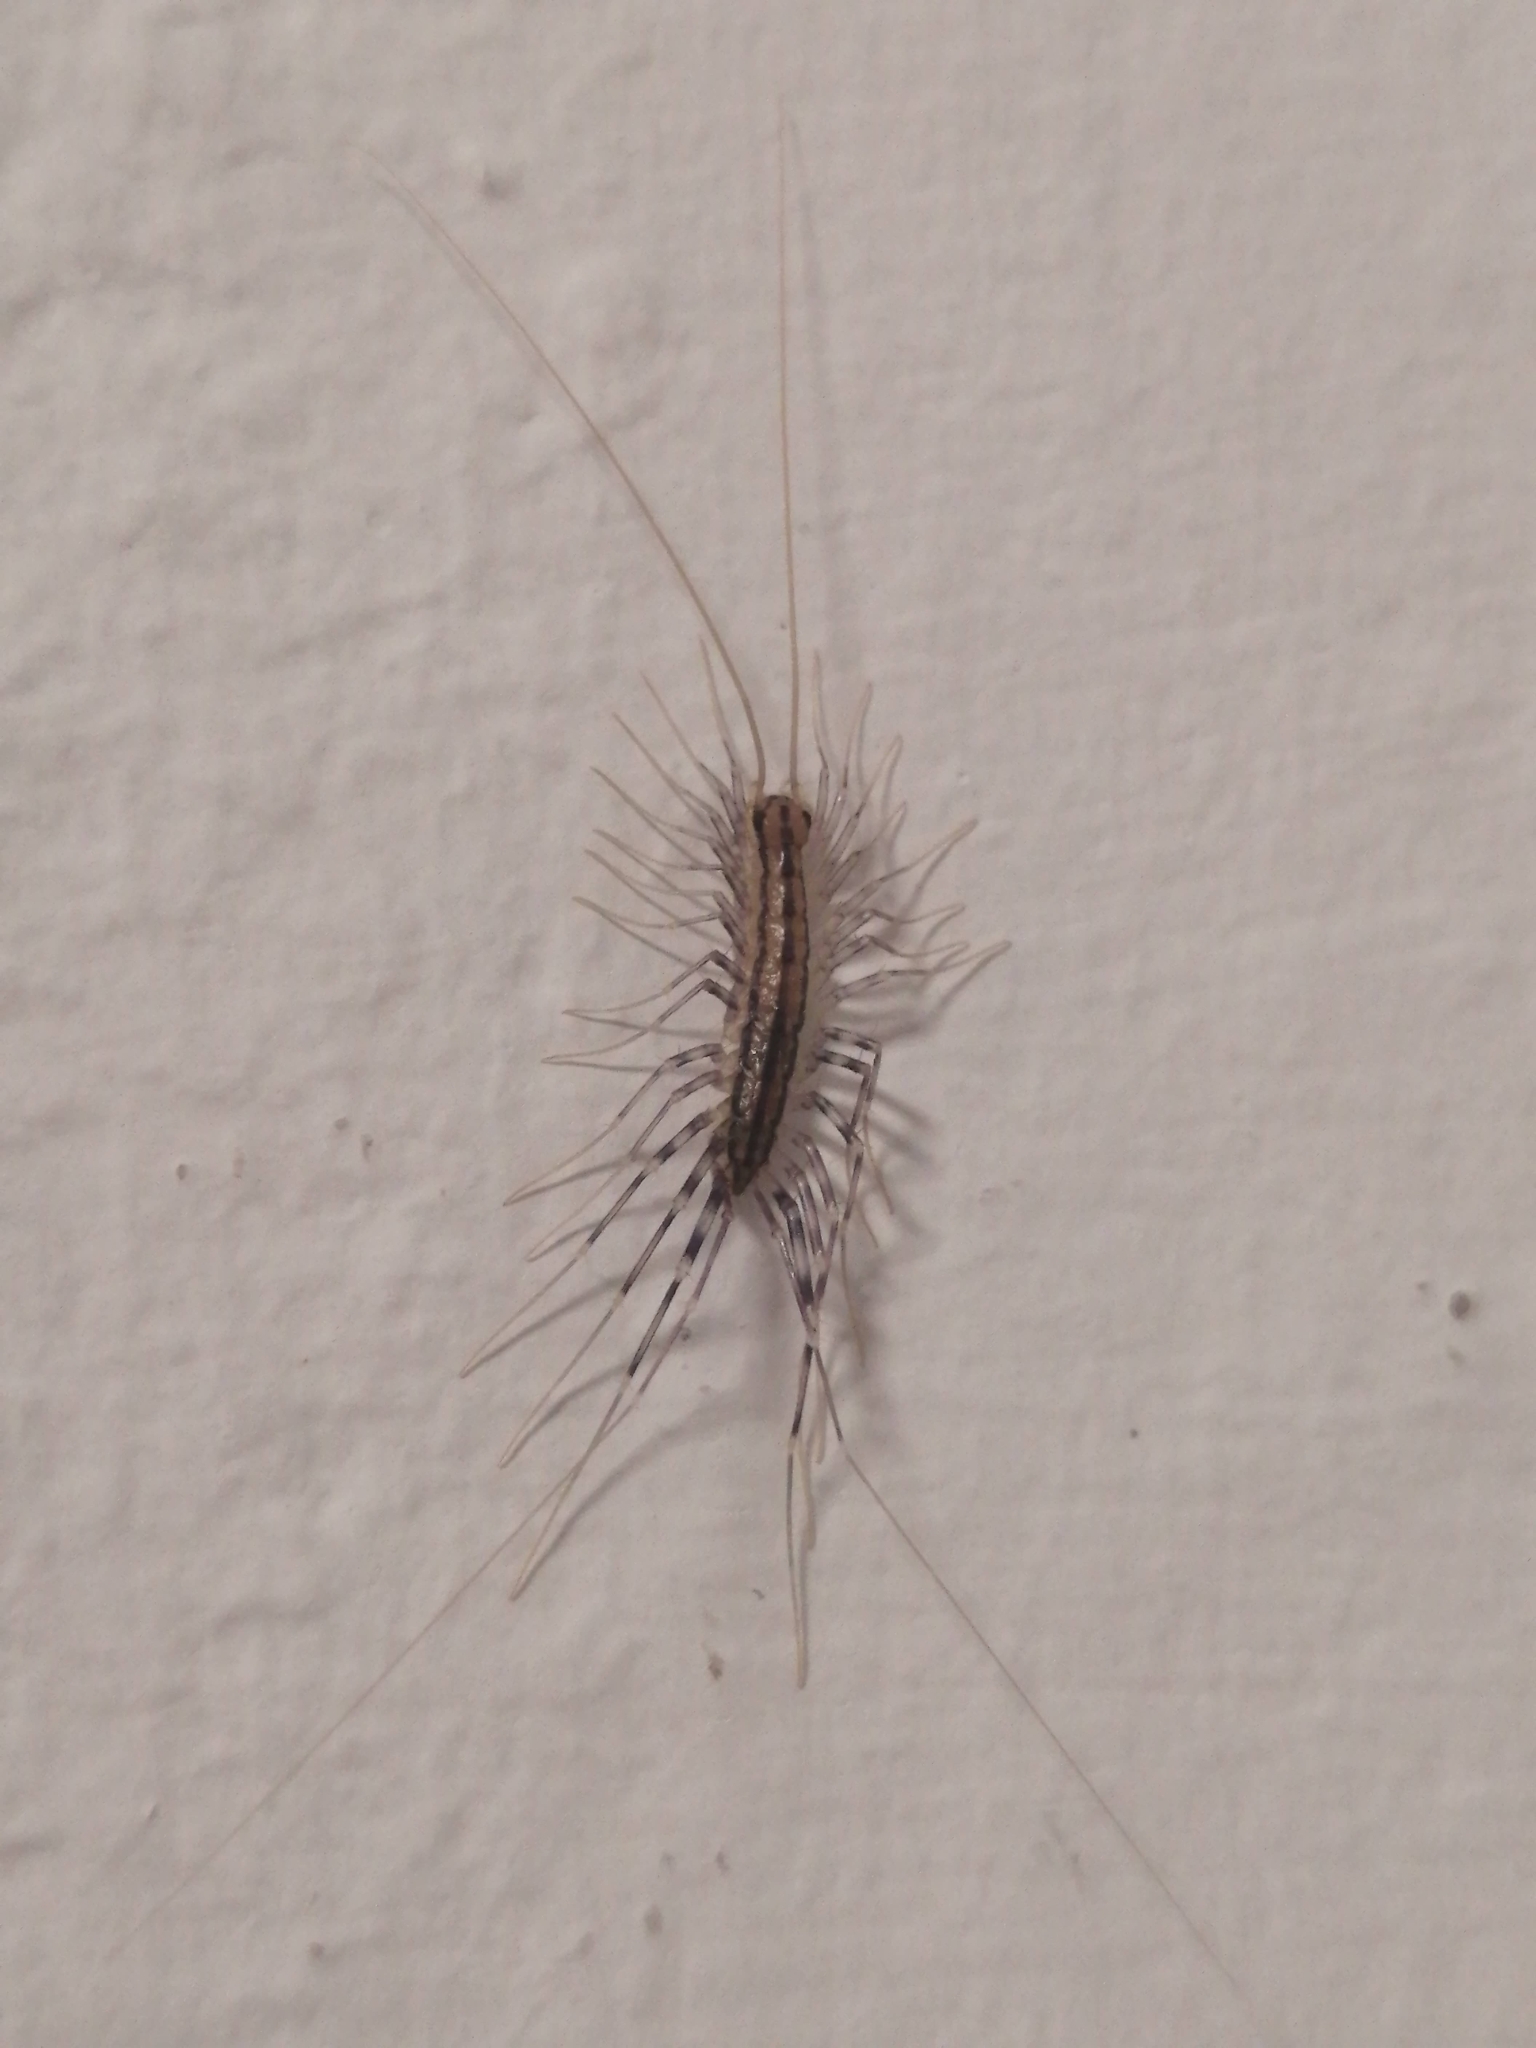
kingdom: Animalia
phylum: Arthropoda
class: Chilopoda
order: Scutigeromorpha
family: Scutigeridae
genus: Scutigera
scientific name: Scutigera coleoptrata
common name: House centipede
